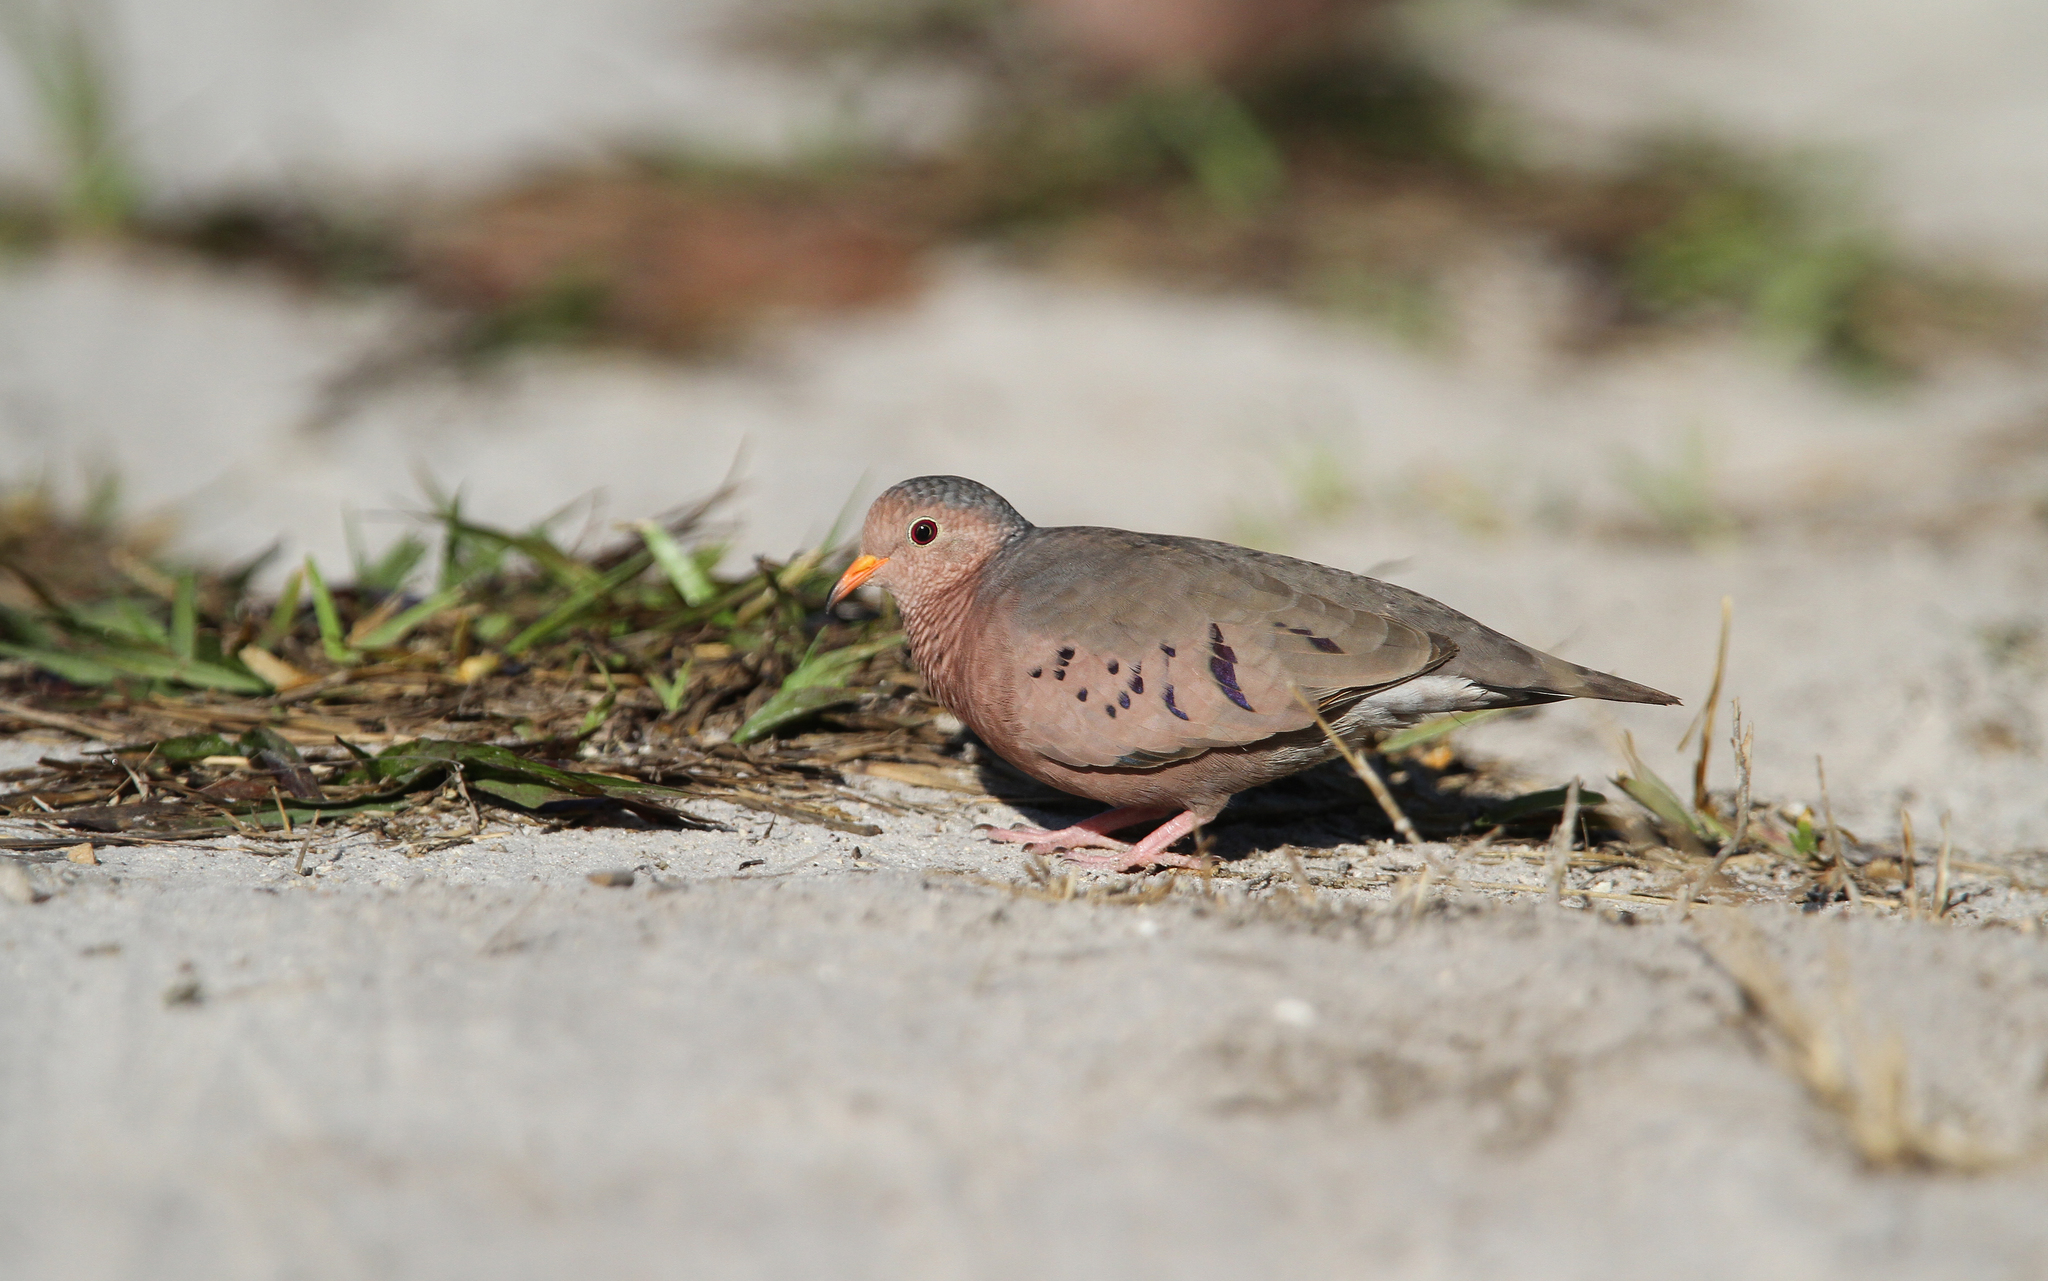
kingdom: Animalia
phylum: Chordata
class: Aves
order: Columbiformes
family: Columbidae
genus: Columbina
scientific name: Columbina passerina
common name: Common ground-dove
